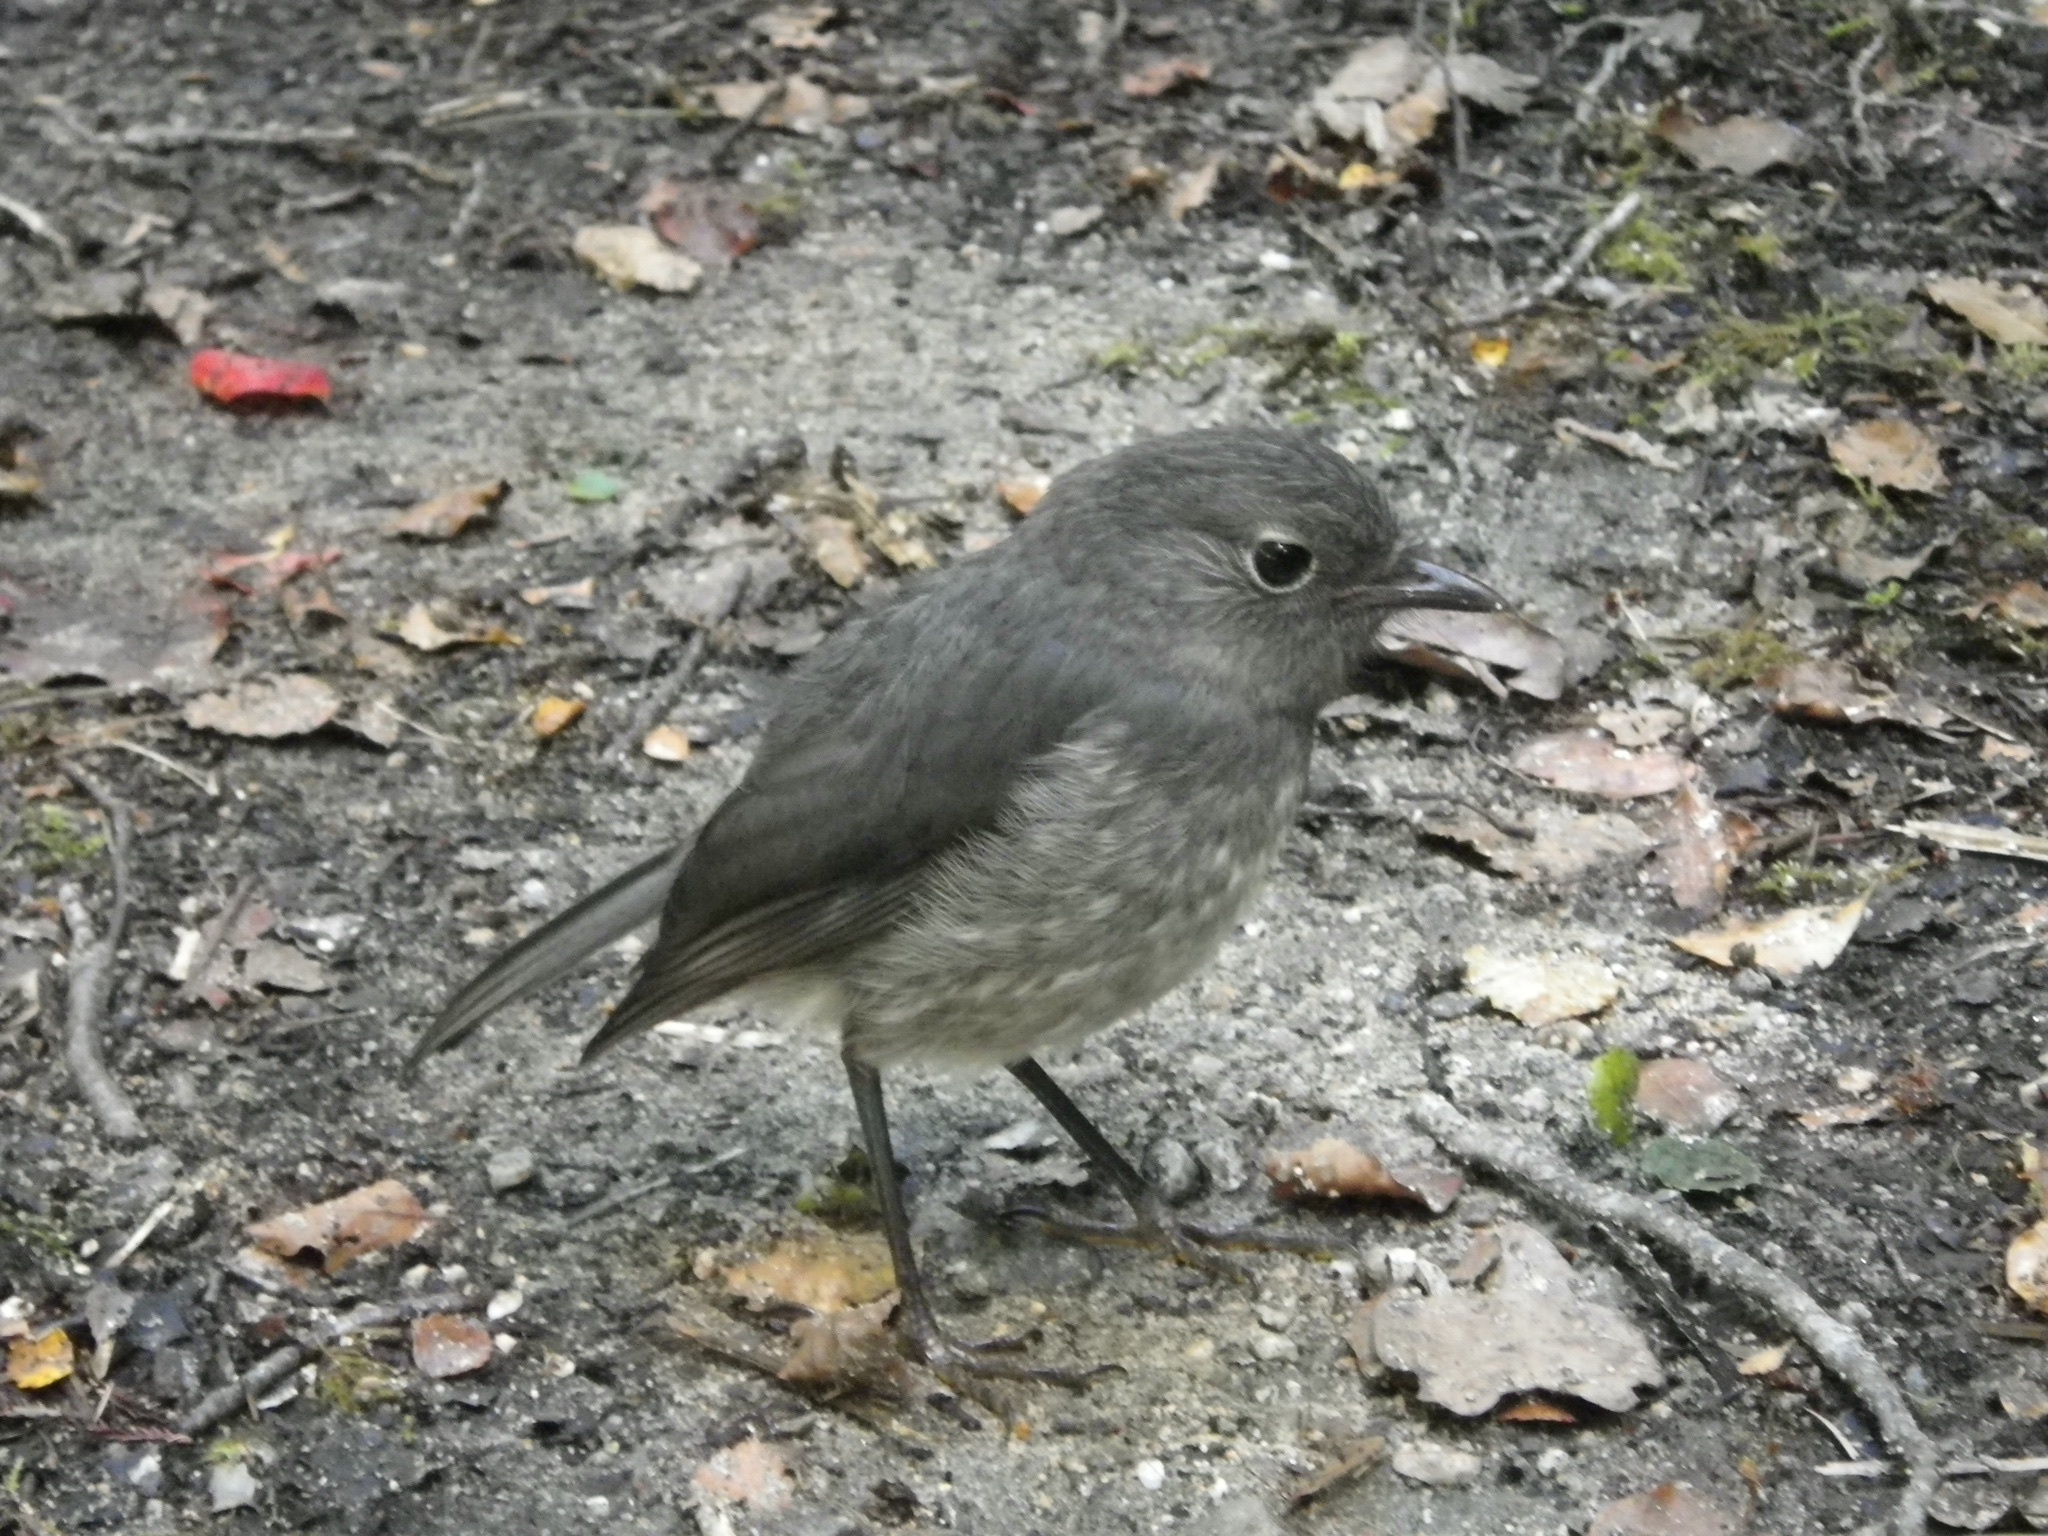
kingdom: Animalia
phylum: Chordata
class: Aves
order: Passeriformes
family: Petroicidae
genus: Petroica
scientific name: Petroica australis
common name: New zealand robin
